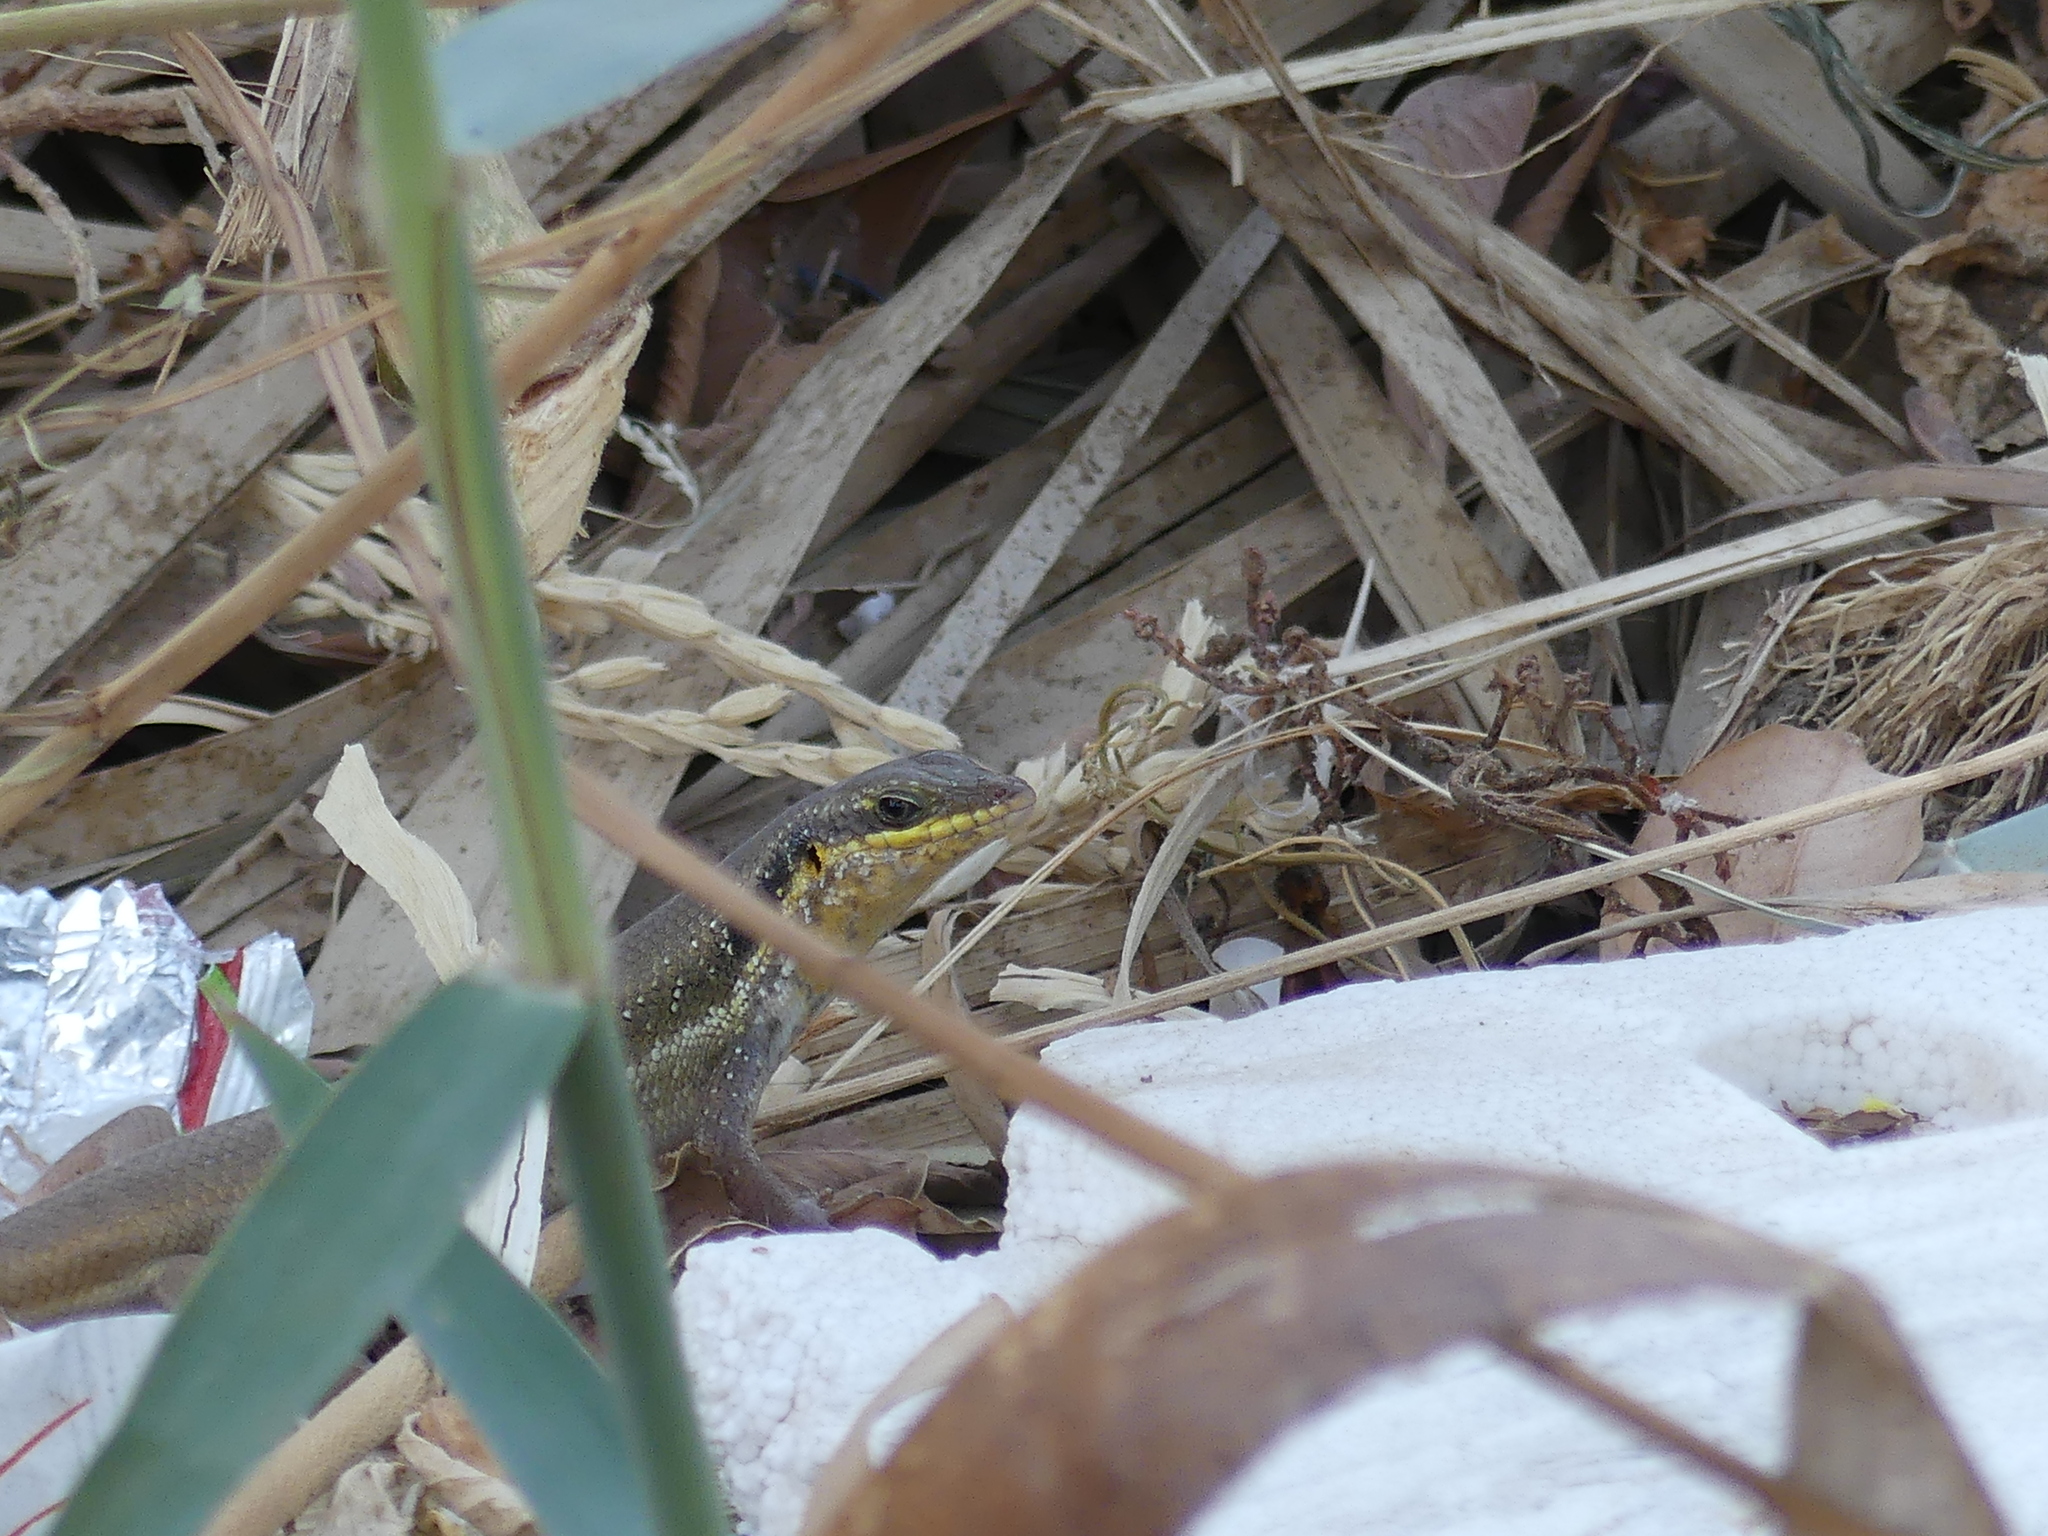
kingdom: Animalia
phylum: Chordata
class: Squamata
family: Scincidae
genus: Trachylepis
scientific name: Trachylepis quinquetaeniata
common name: African five-lined skink
